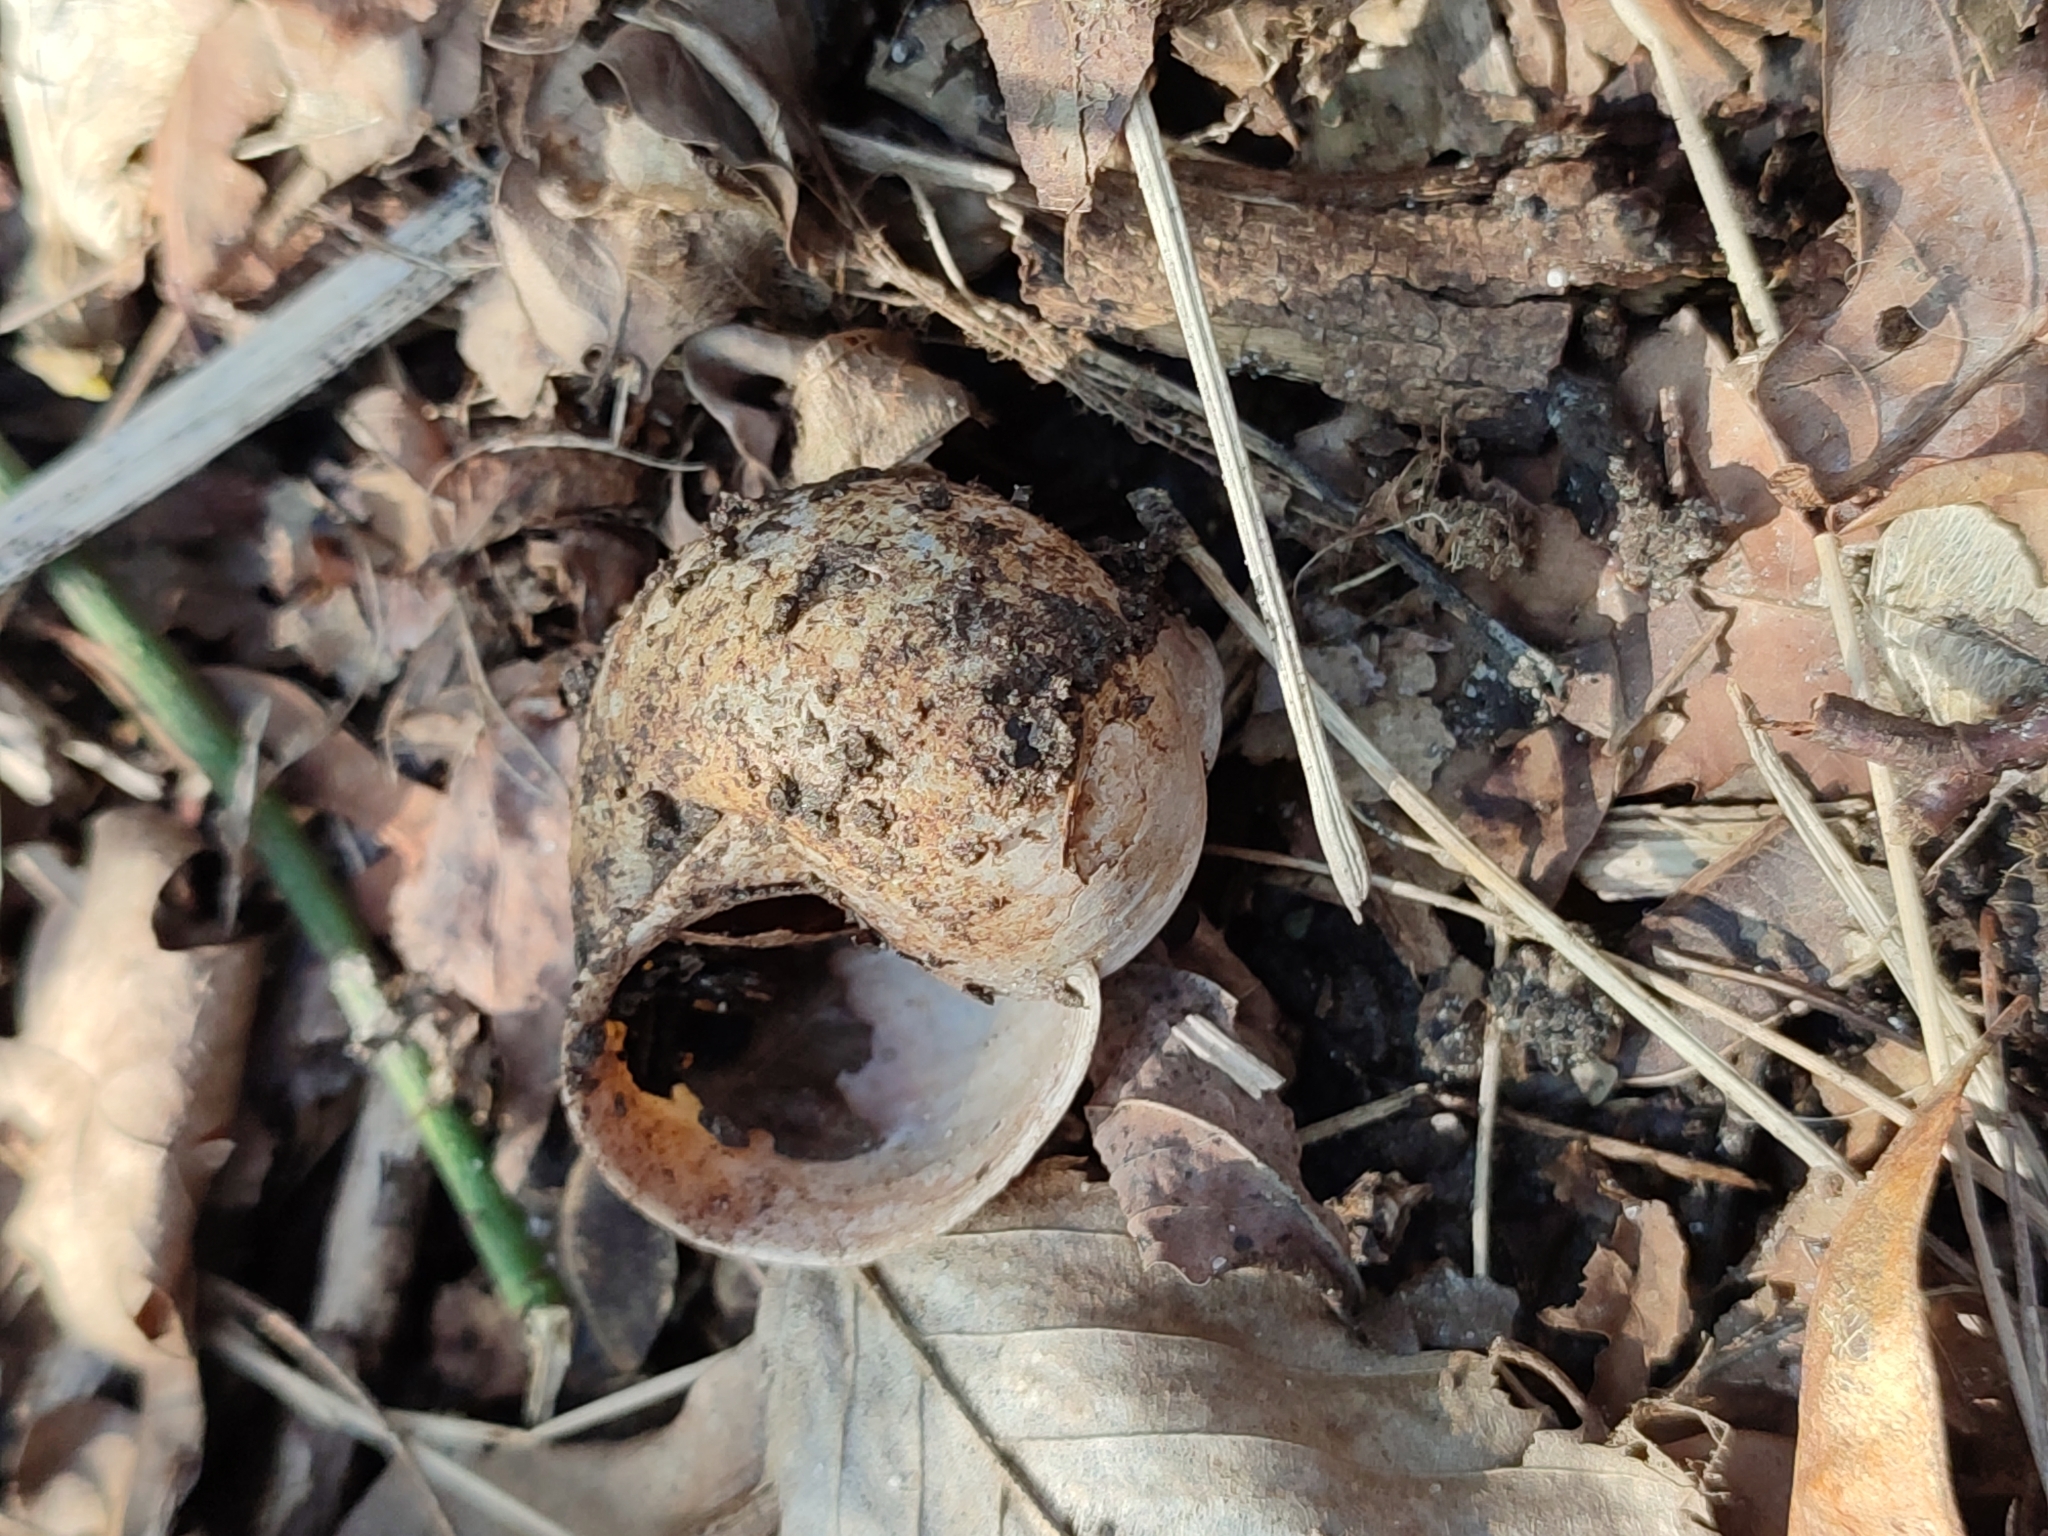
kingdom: Animalia
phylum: Mollusca
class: Gastropoda
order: Stylommatophora
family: Helicidae
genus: Helix
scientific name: Helix pomatia
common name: Roman snail
